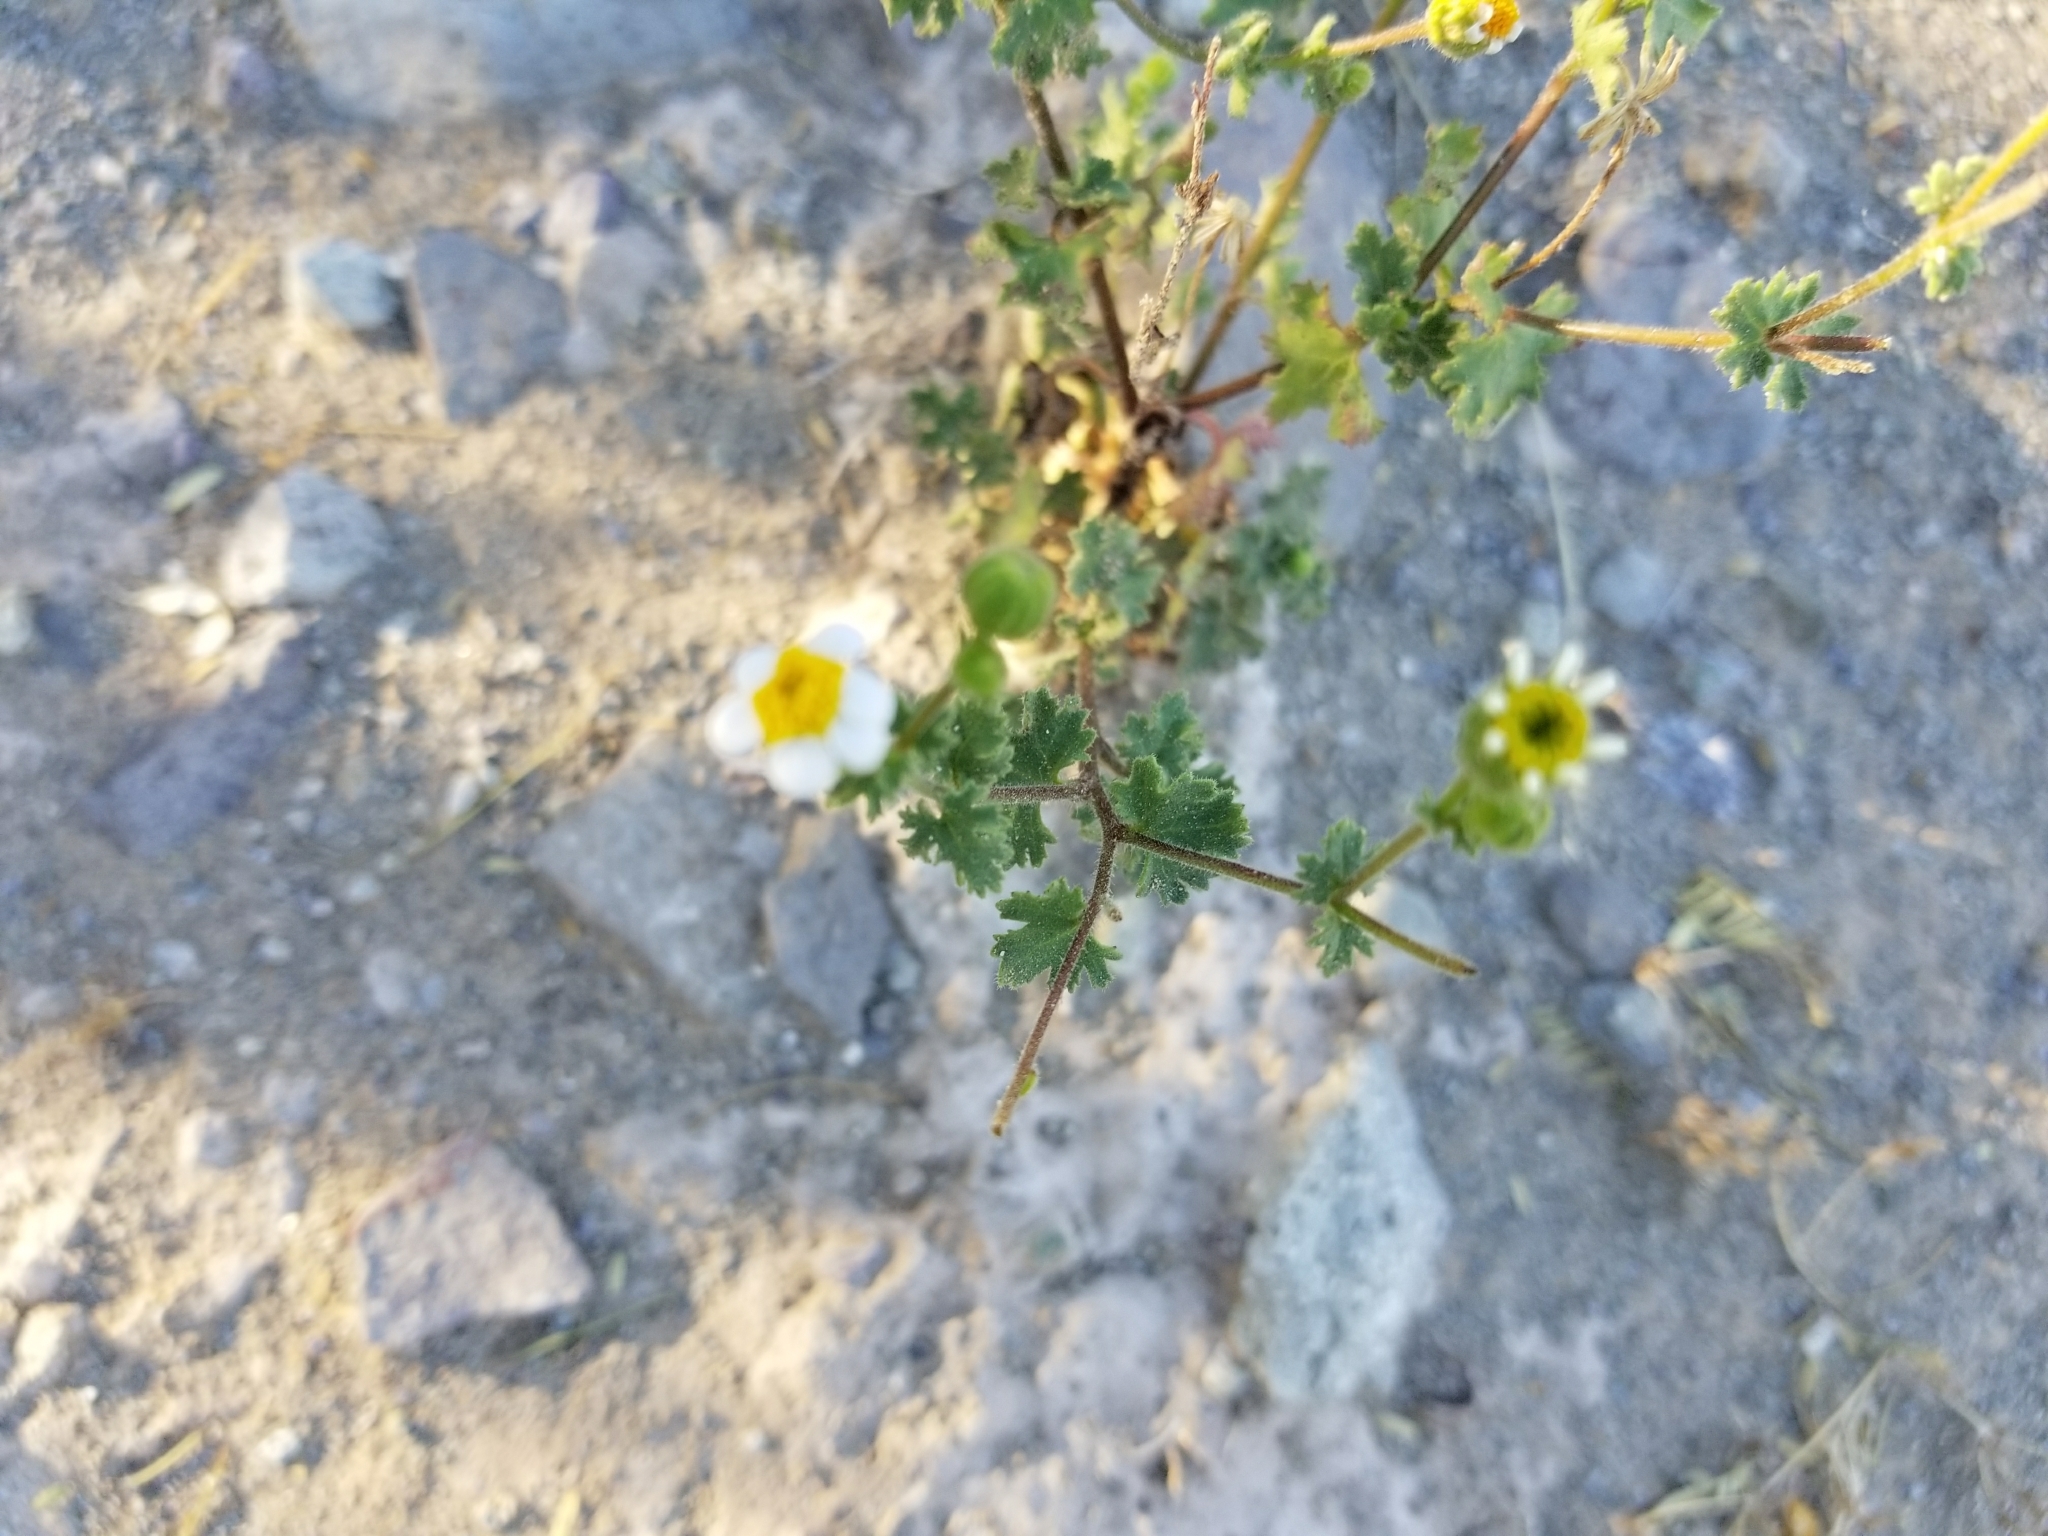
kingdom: Plantae
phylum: Tracheophyta
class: Magnoliopsida
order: Asterales
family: Asteraceae
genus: Laphamia
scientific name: Laphamia emoryi
